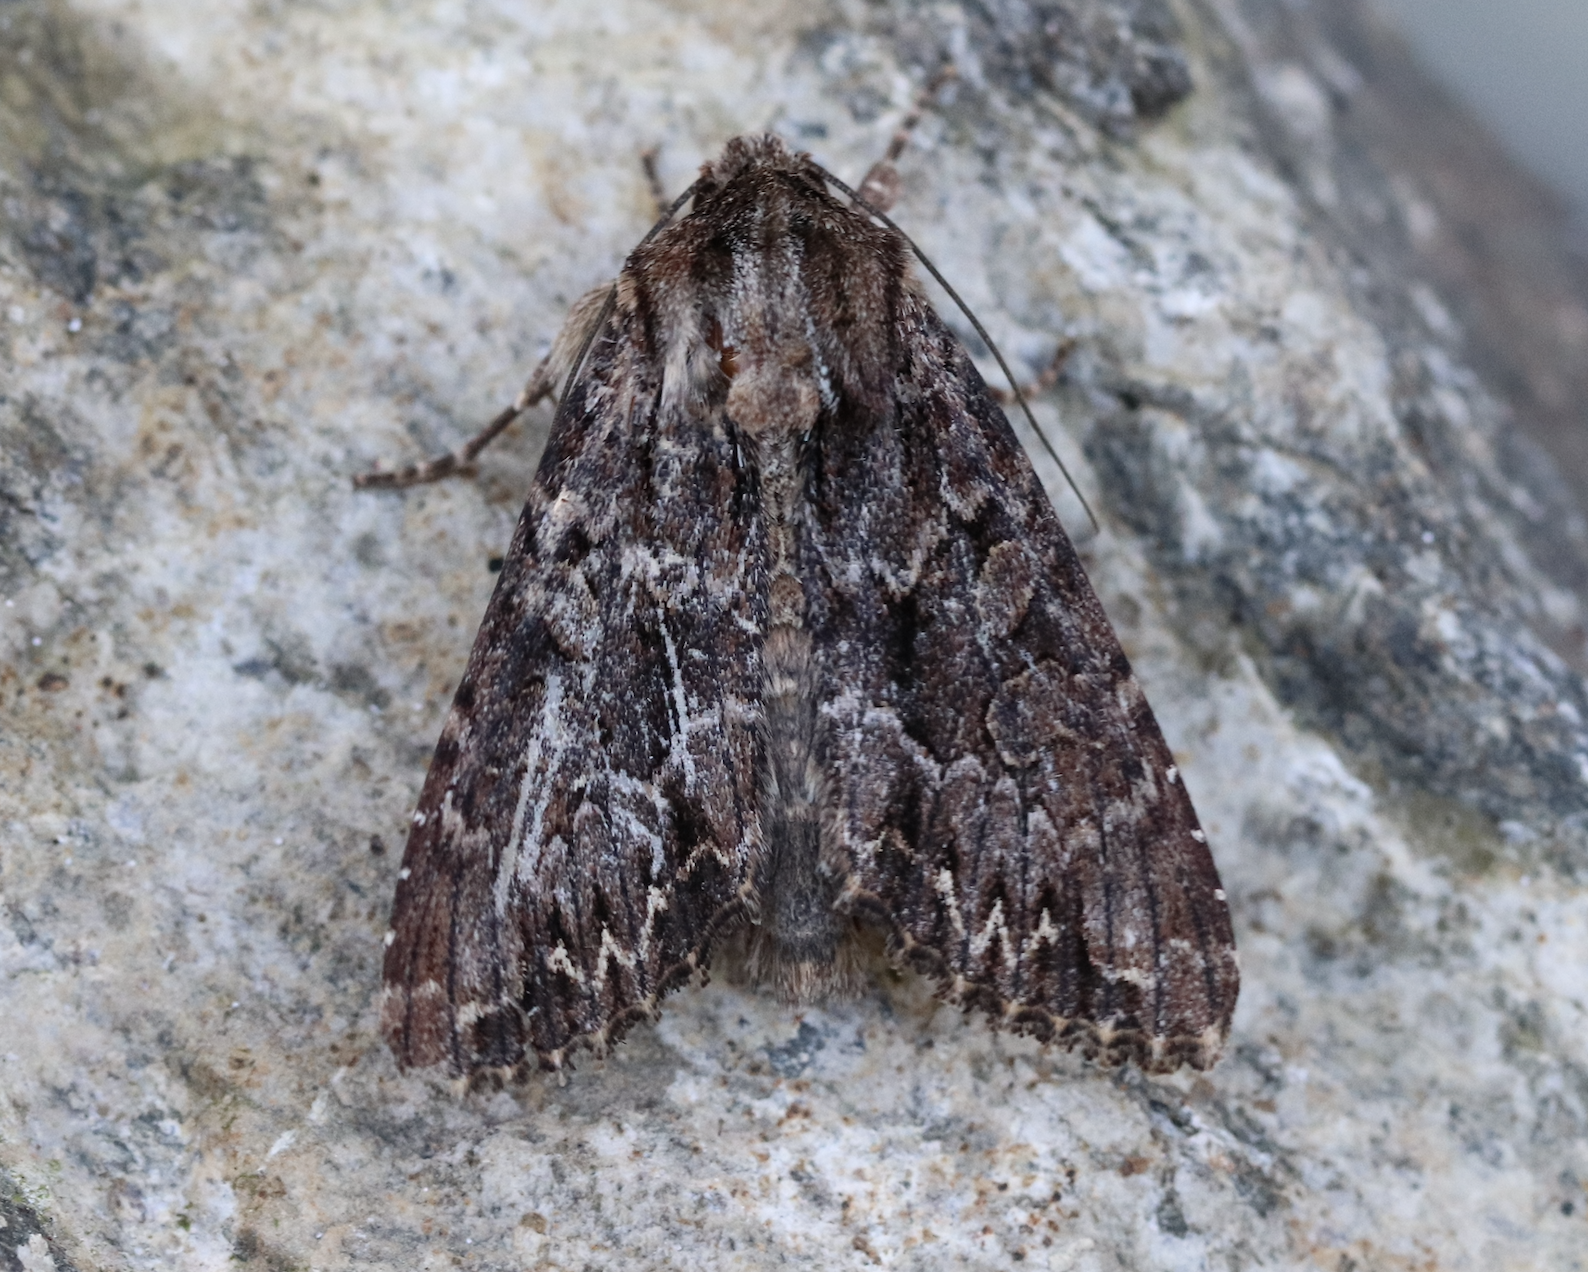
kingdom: Animalia
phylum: Arthropoda
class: Insecta
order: Lepidoptera
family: Noctuidae
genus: Apamea
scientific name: Apamea monoglypha
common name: Dark arches
